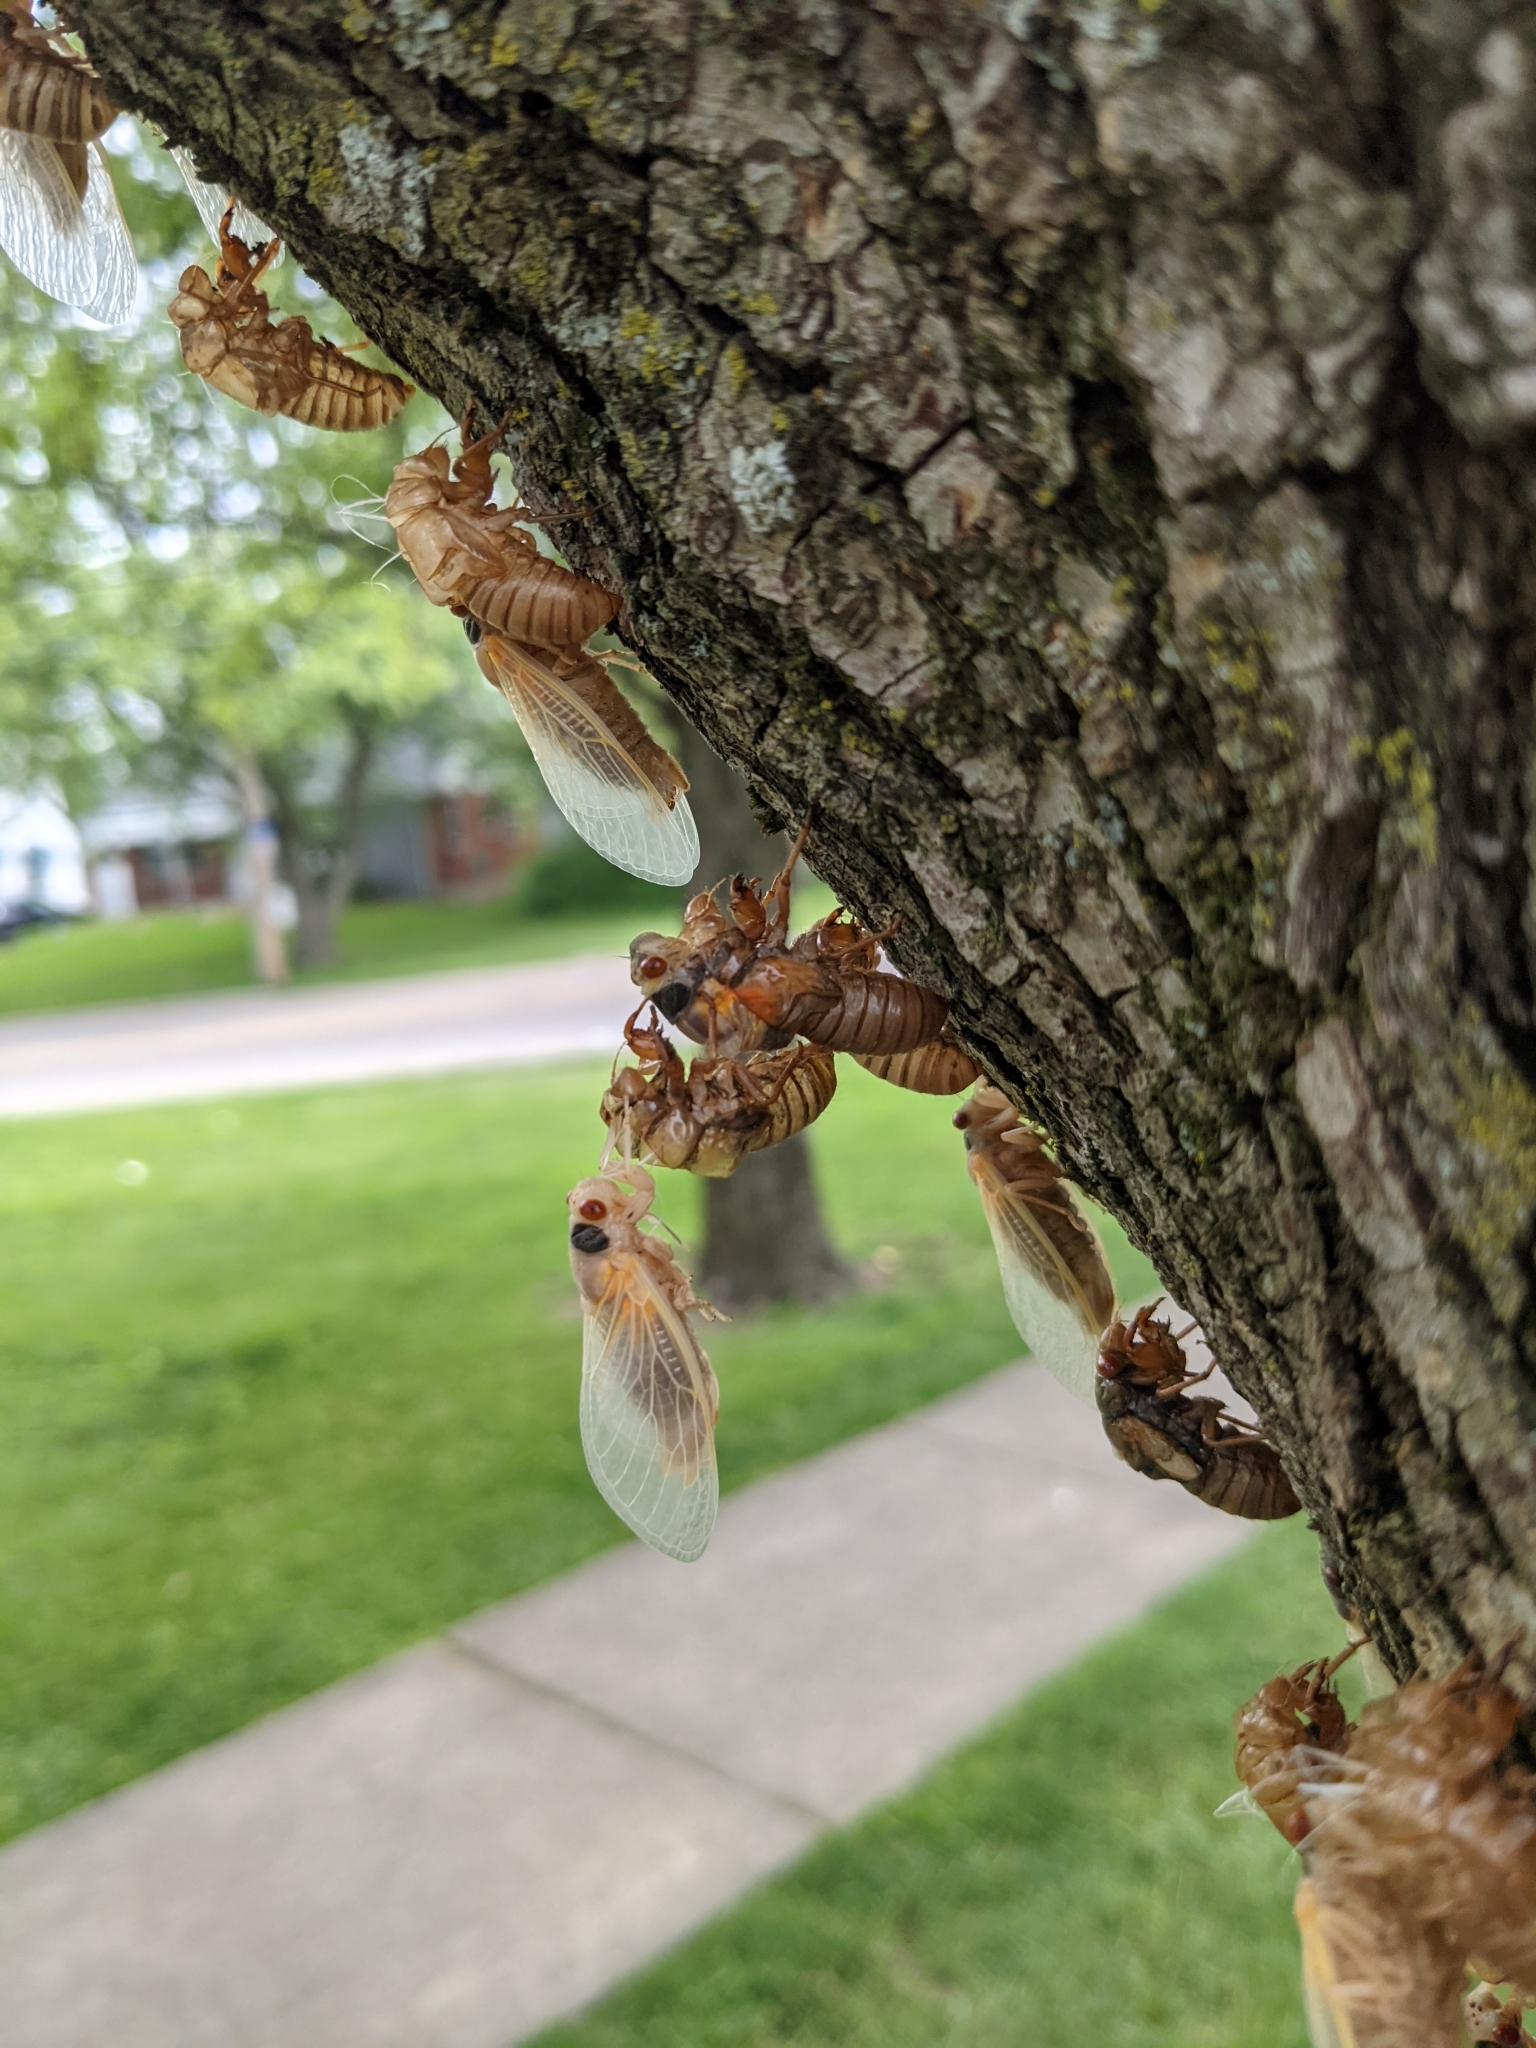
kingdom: Animalia
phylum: Arthropoda
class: Insecta
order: Hemiptera
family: Cicadidae
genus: Magicicada
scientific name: Magicicada
